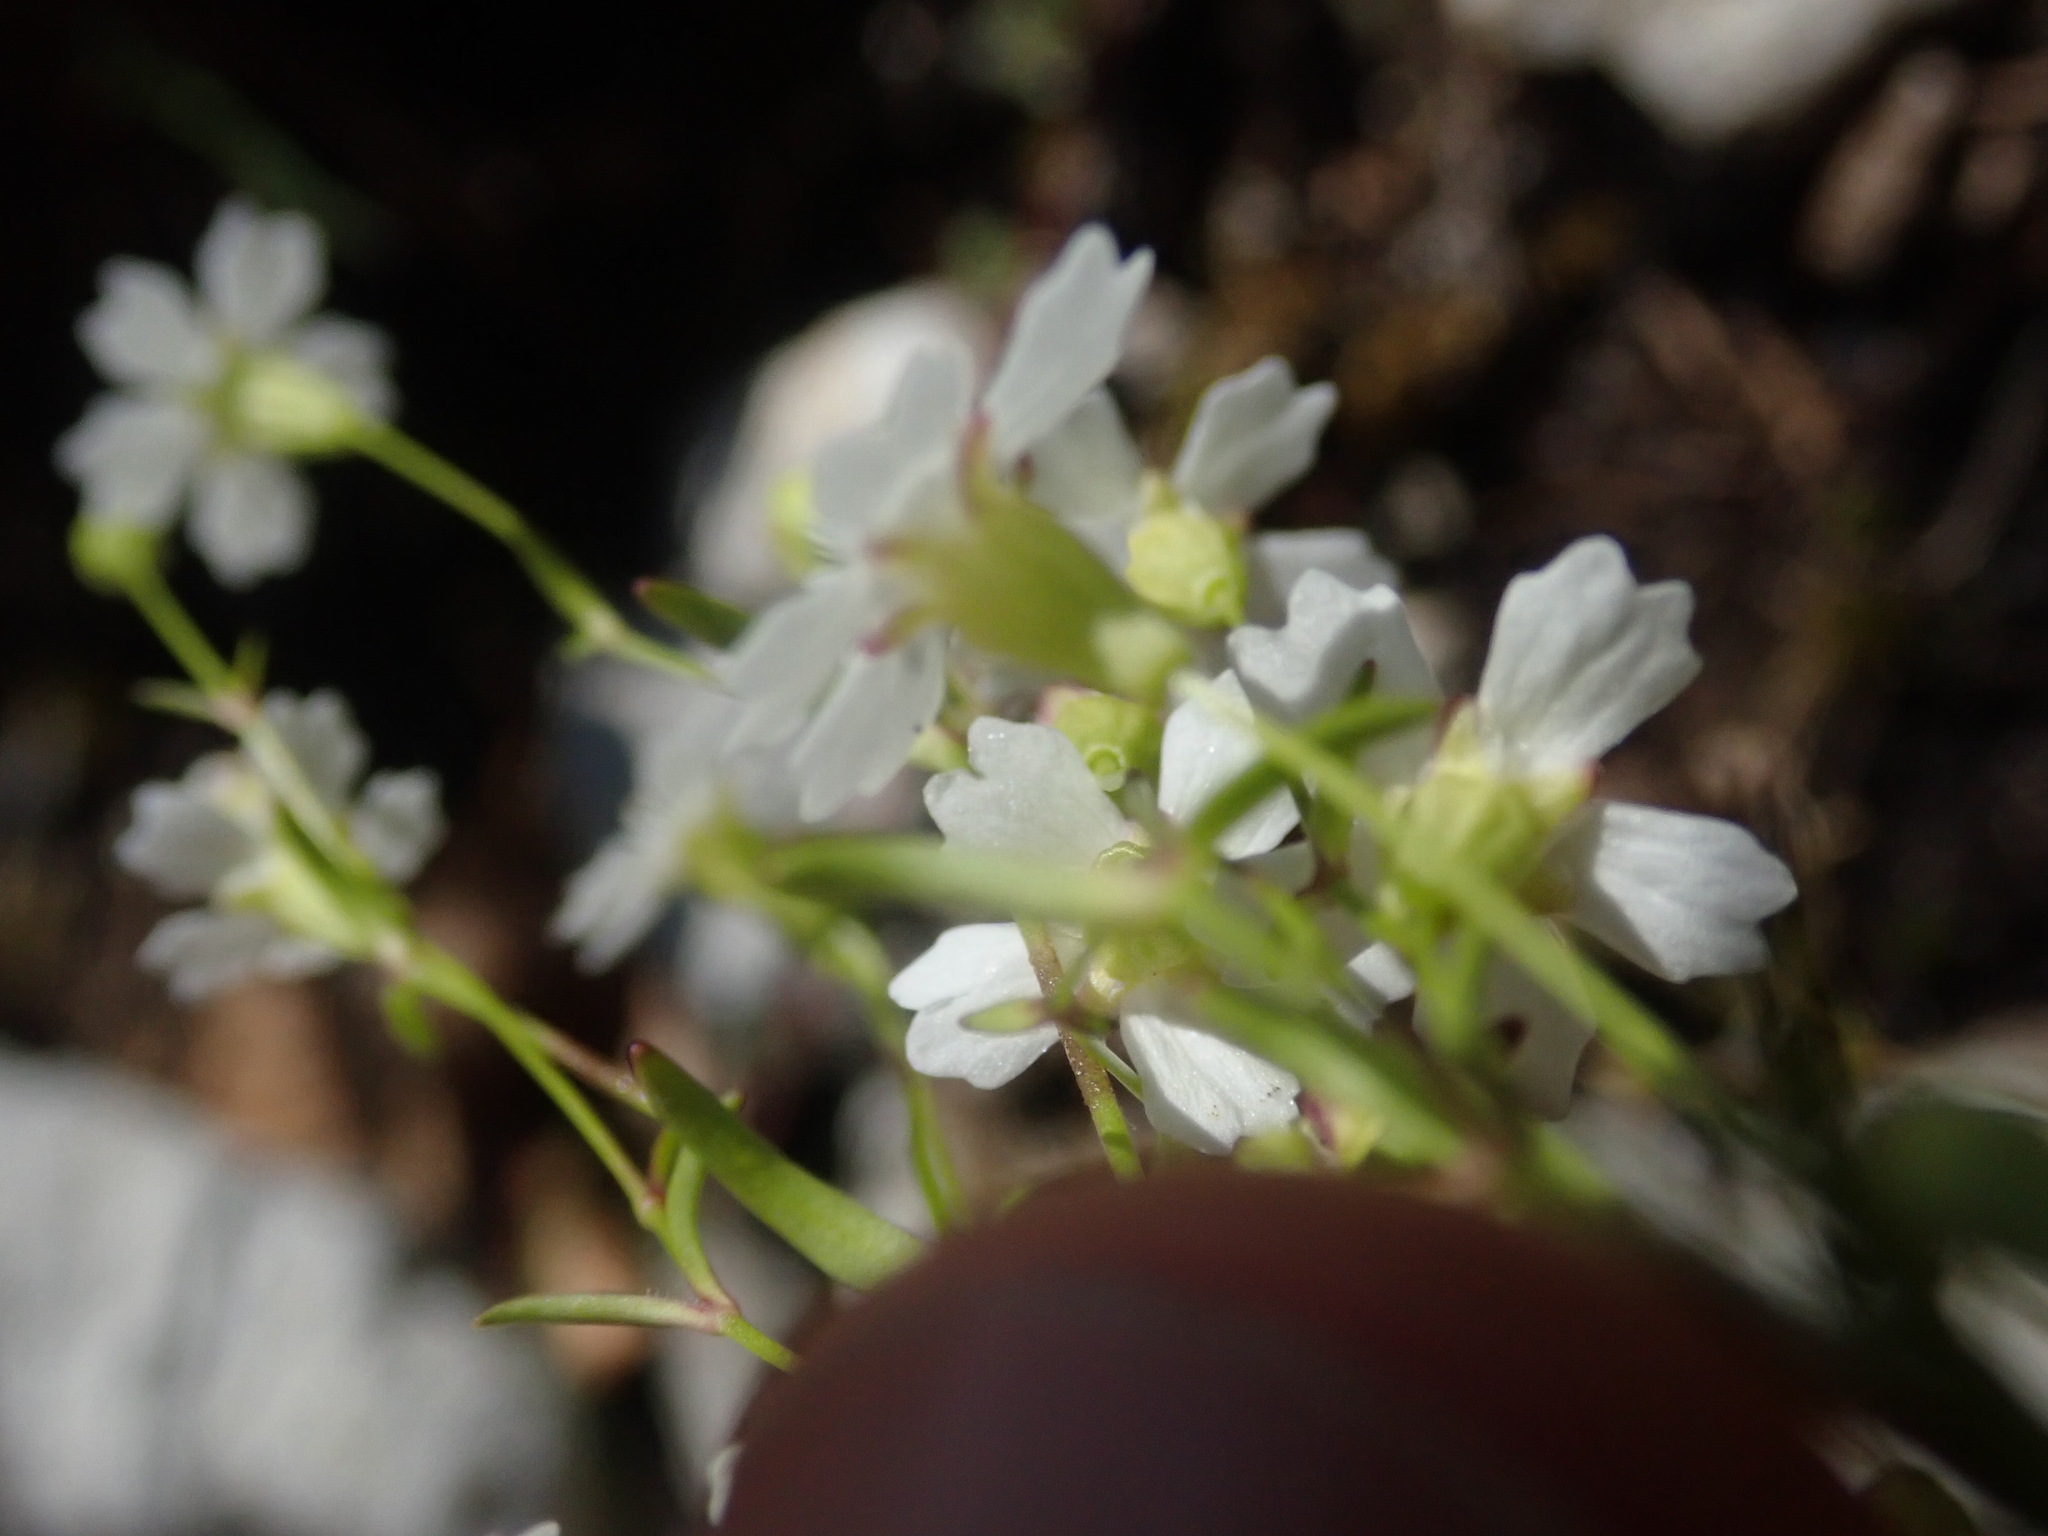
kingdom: Plantae
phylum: Tracheophyta
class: Magnoliopsida
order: Caryophyllales
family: Caryophyllaceae
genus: Heliosperma
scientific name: Heliosperma pusillum
